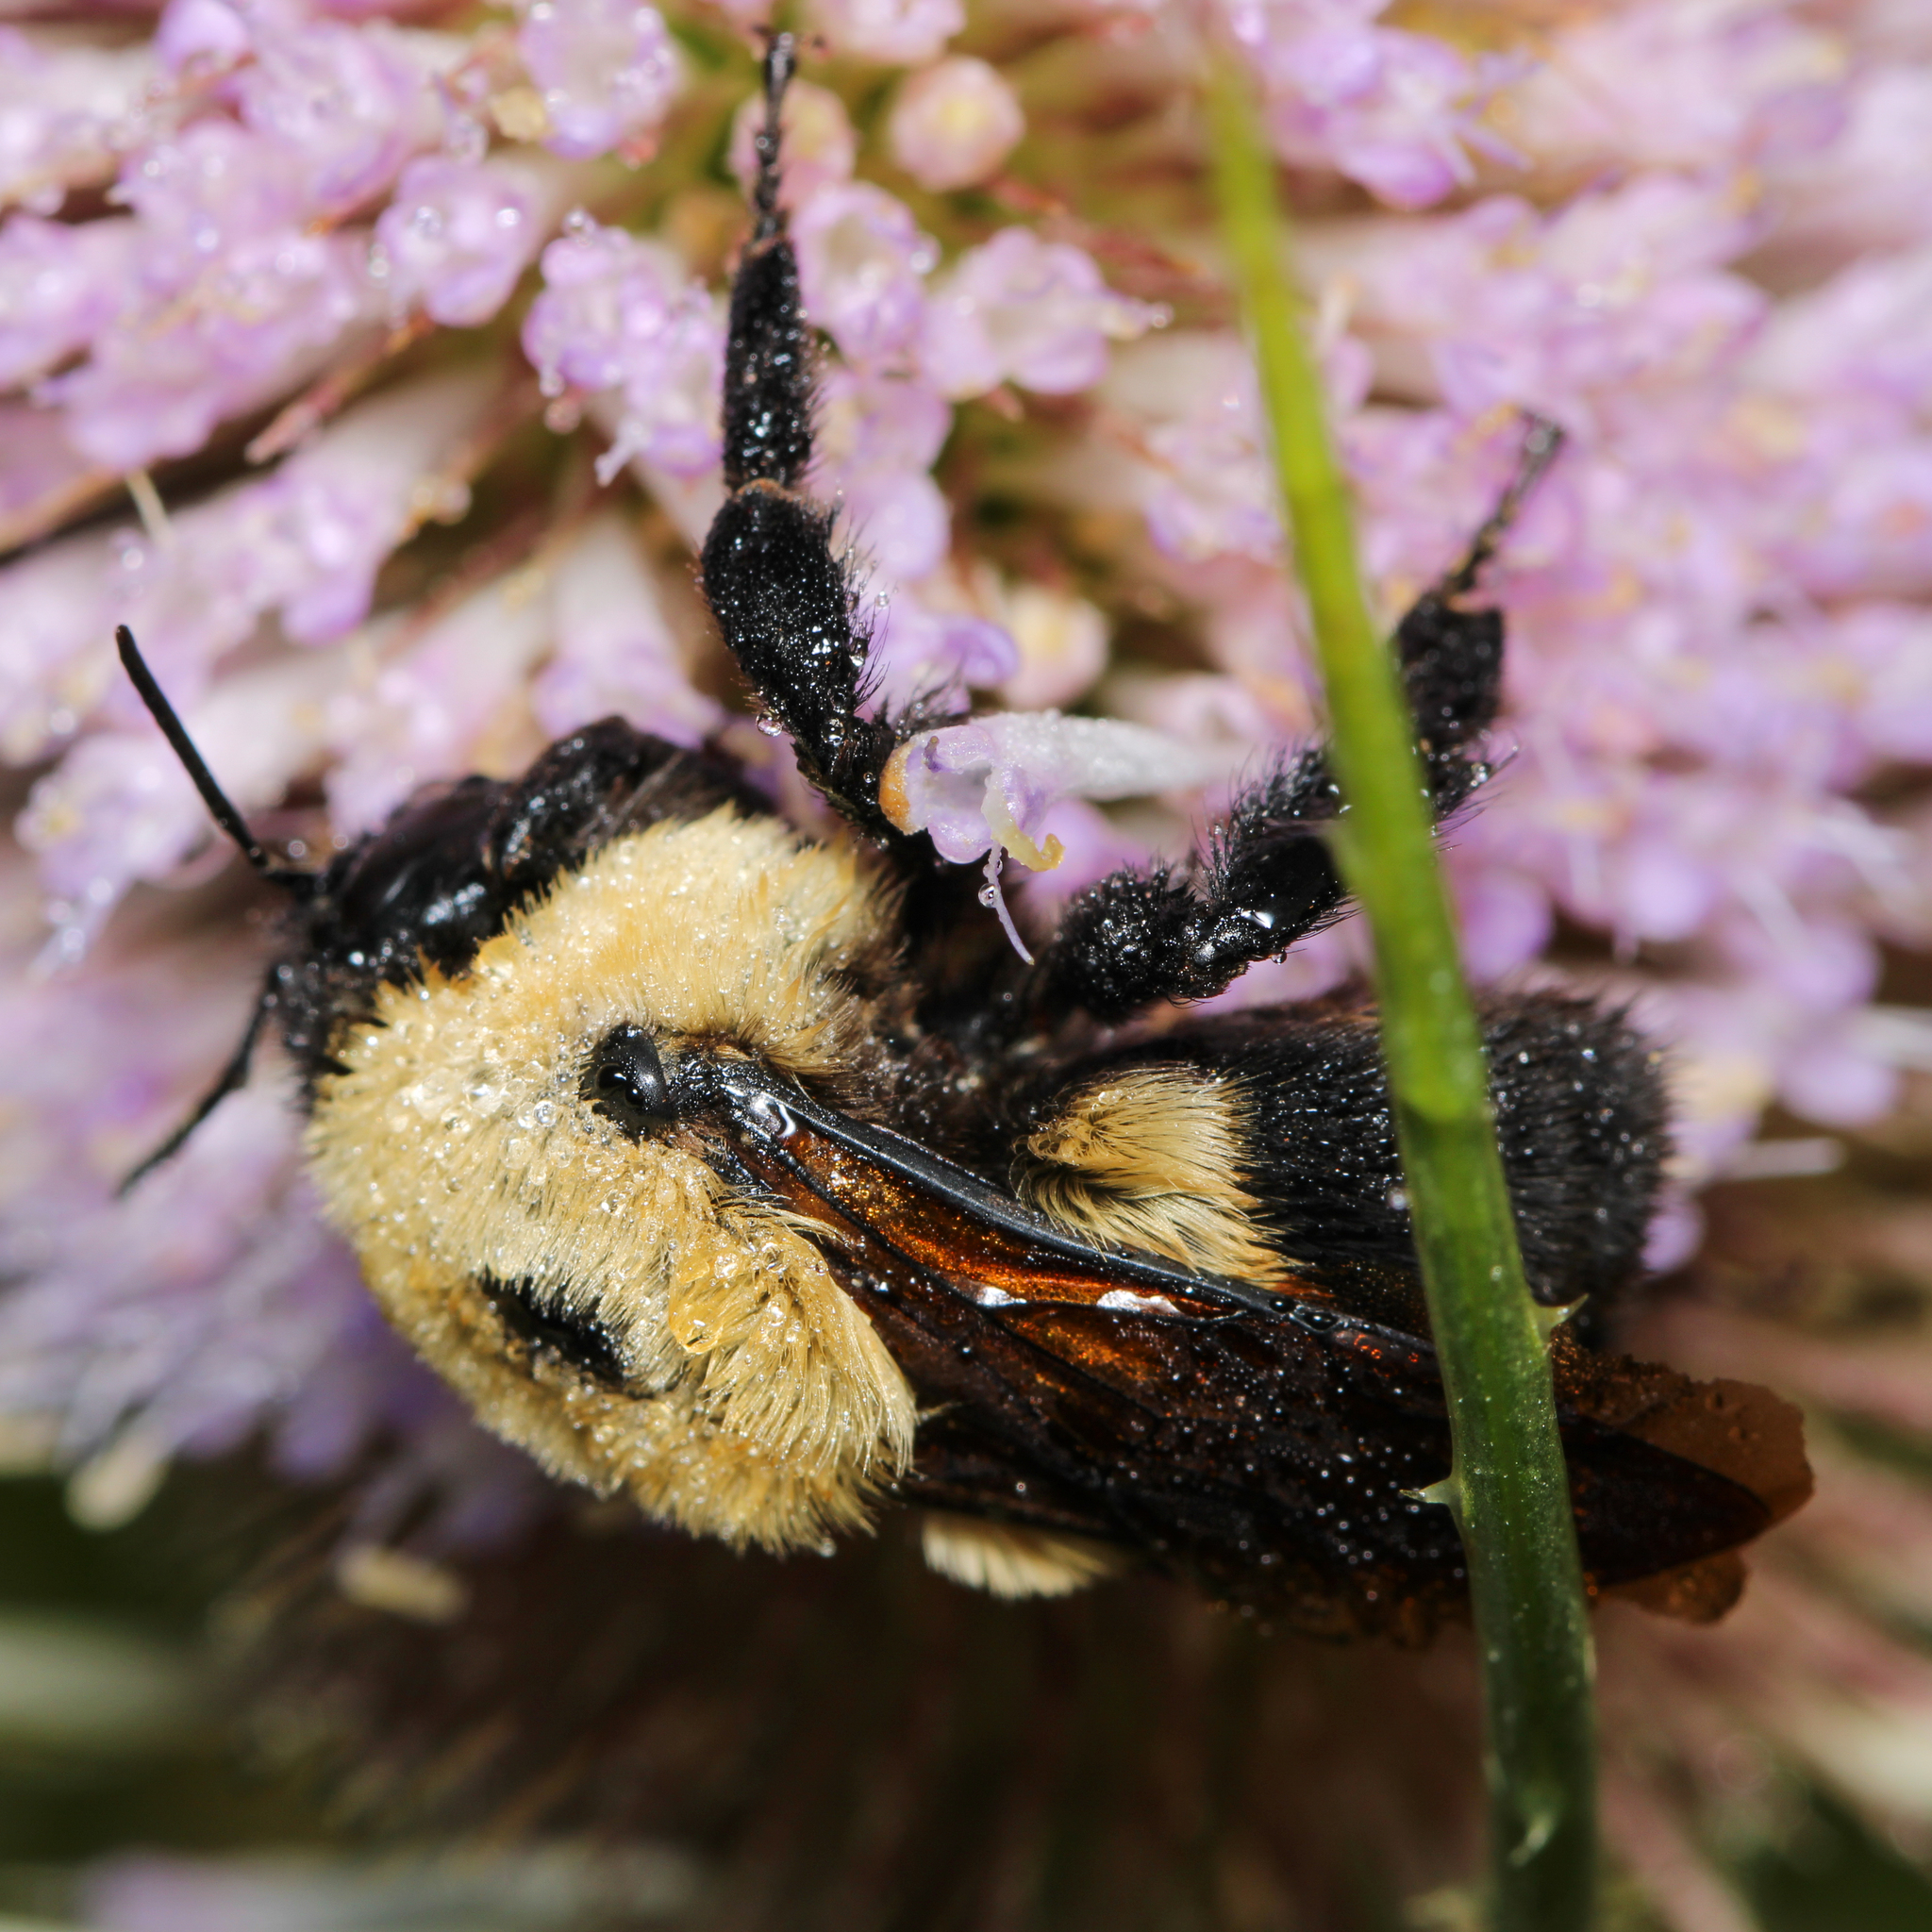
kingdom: Animalia
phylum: Arthropoda
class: Insecta
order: Hymenoptera
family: Apidae
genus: Bombus
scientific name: Bombus griseocollis
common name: Brown-belted bumble bee
